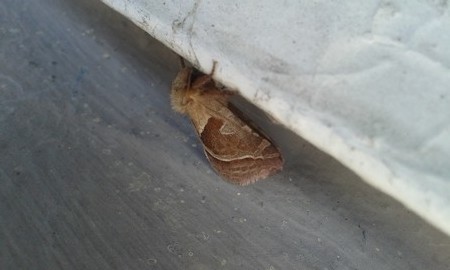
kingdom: Animalia
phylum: Arthropoda
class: Insecta
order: Lepidoptera
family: Hepialidae
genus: Triodia
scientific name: Triodia sylvina
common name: Orange swift
